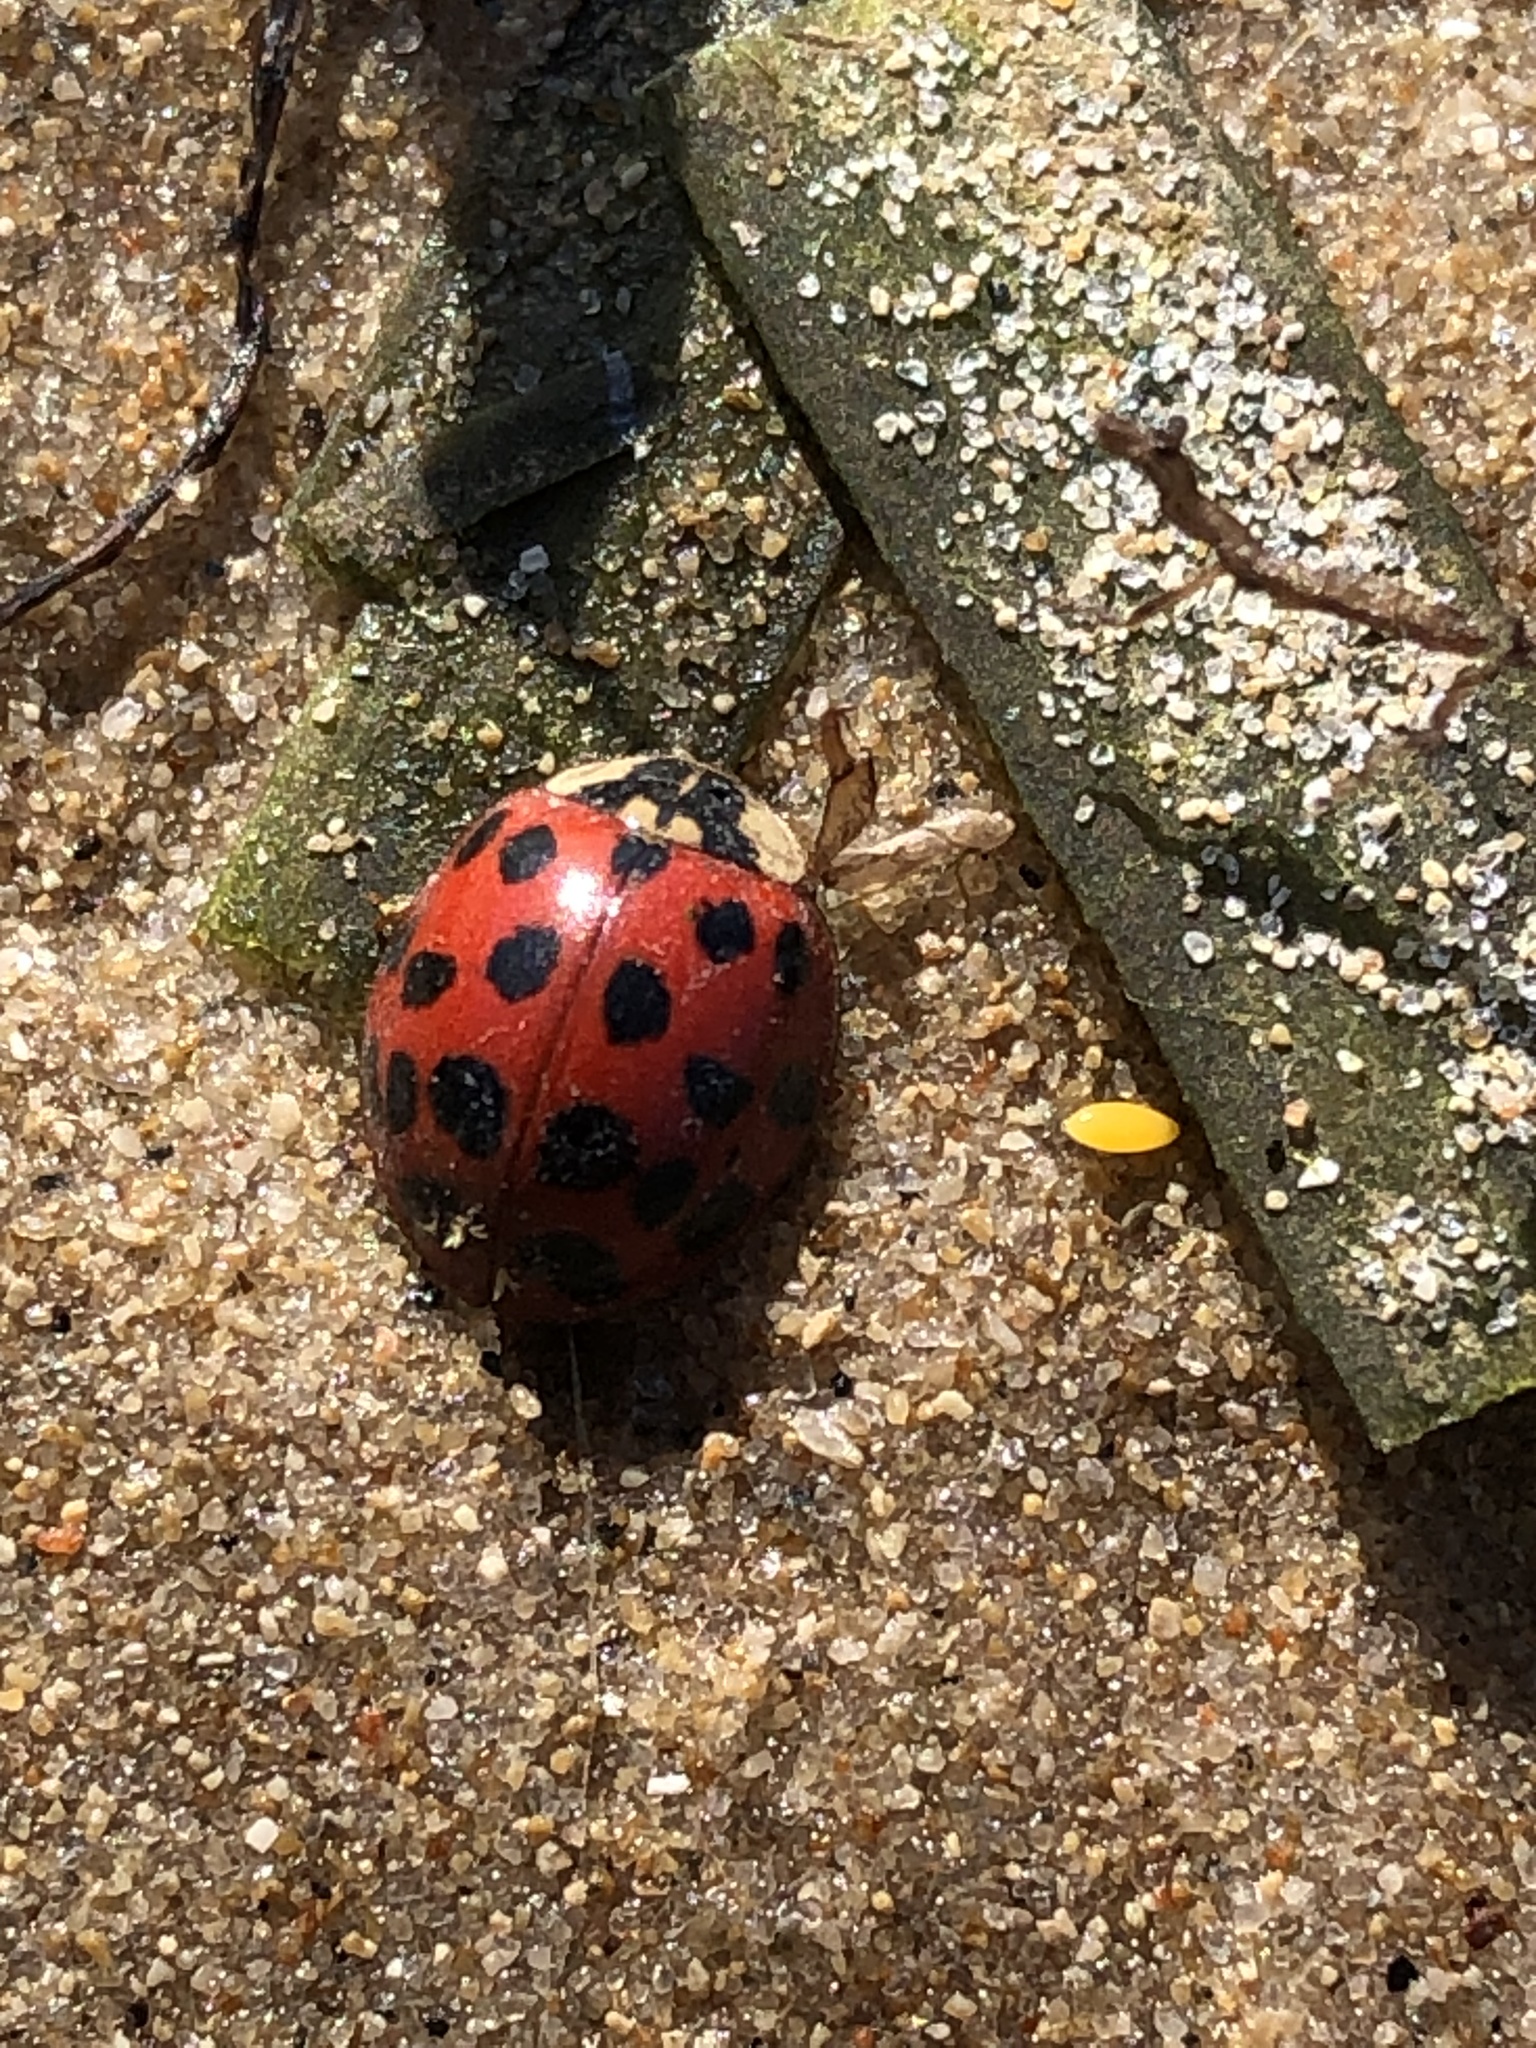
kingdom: Animalia
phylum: Arthropoda
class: Insecta
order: Coleoptera
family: Coccinellidae
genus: Harmonia
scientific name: Harmonia axyridis
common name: Harlequin ladybird
